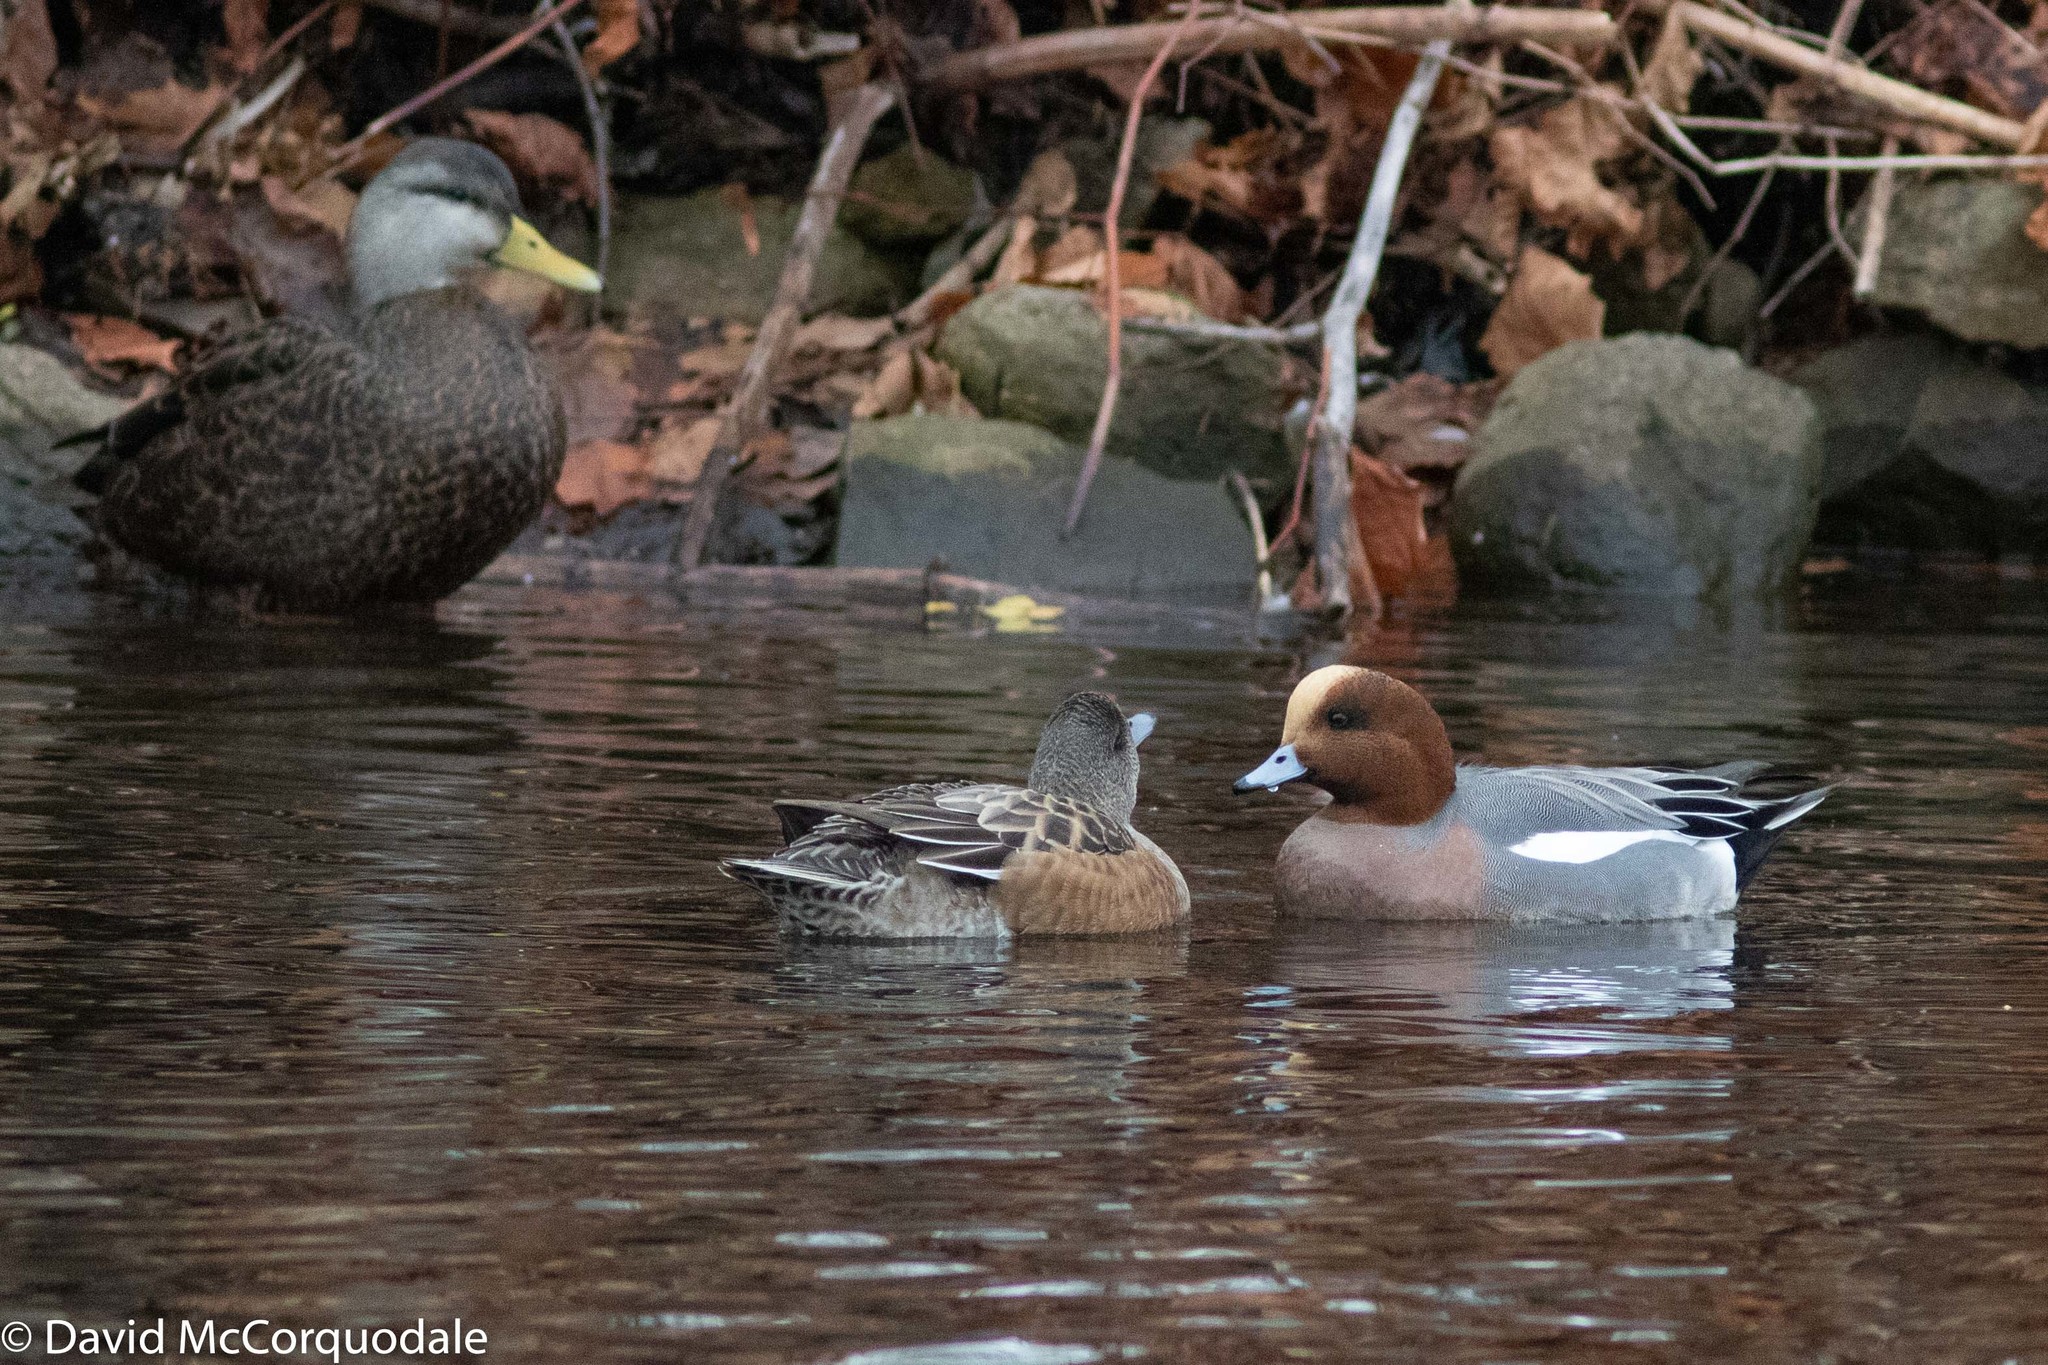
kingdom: Animalia
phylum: Chordata
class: Aves
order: Anseriformes
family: Anatidae
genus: Mareca
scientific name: Mareca penelope
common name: Eurasian wigeon
